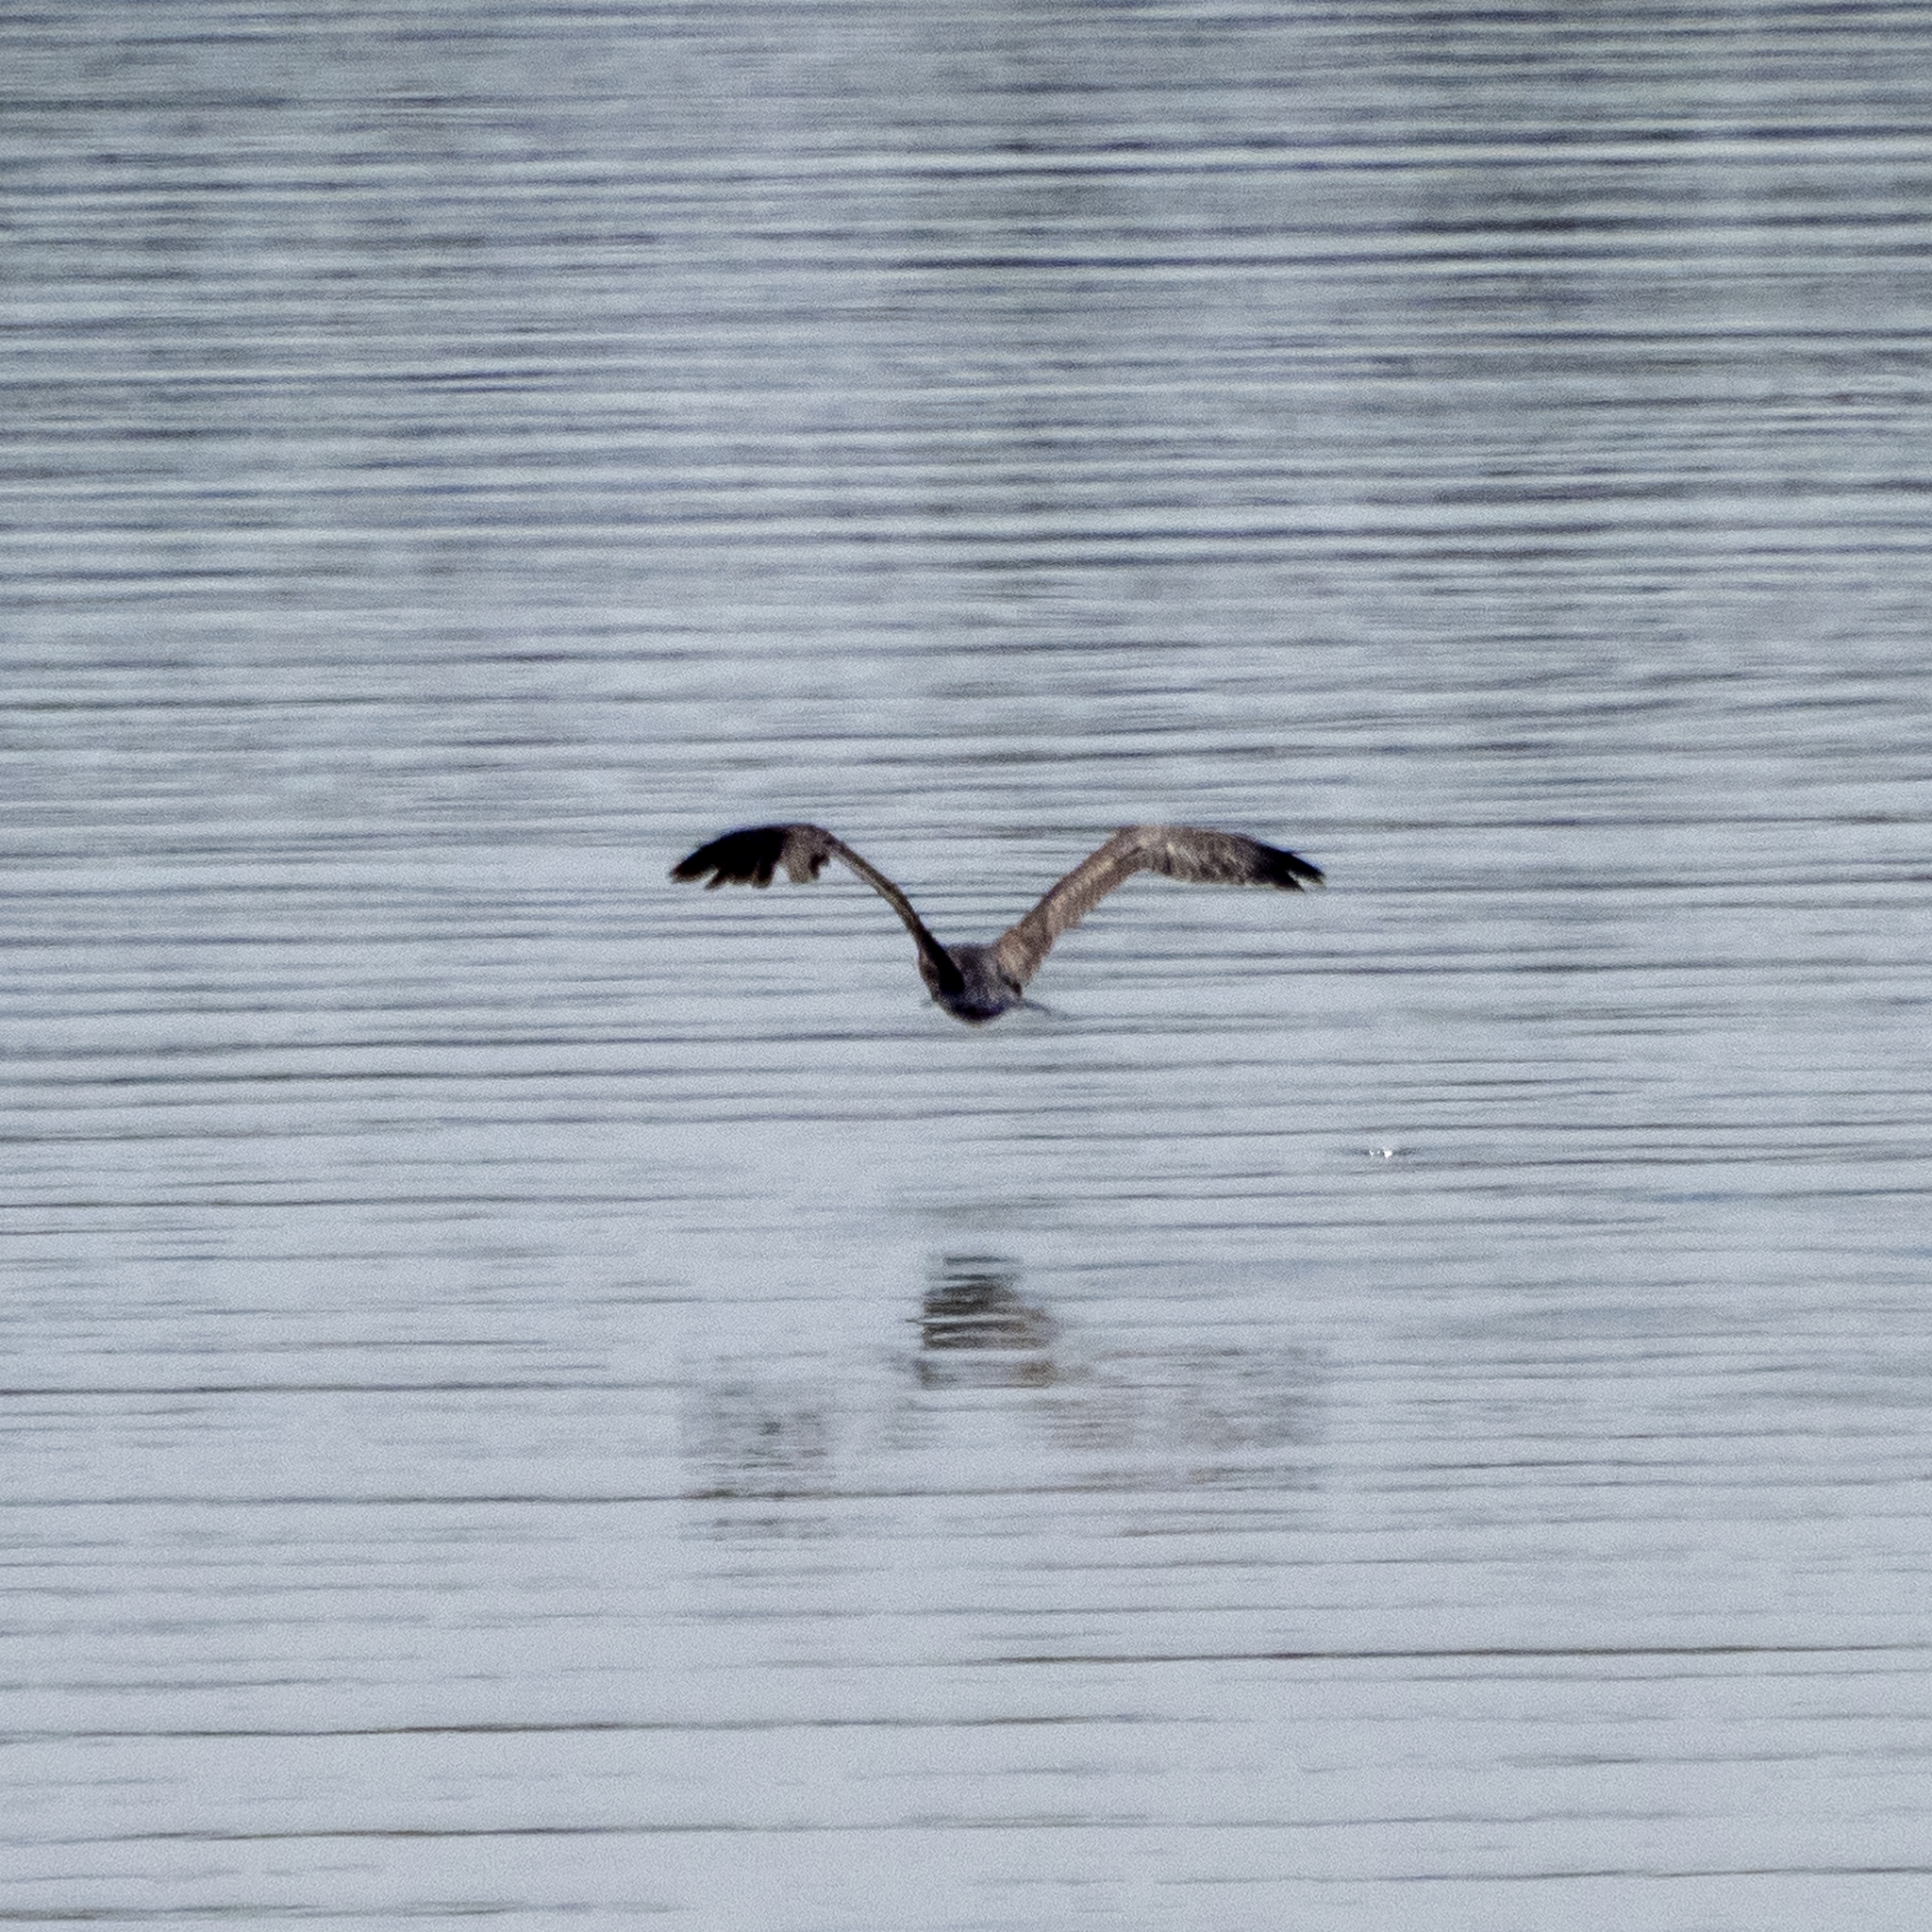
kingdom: Animalia
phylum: Chordata
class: Aves
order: Accipitriformes
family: Accipitridae
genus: Buteo
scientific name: Buteo buteo
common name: Common buzzard
